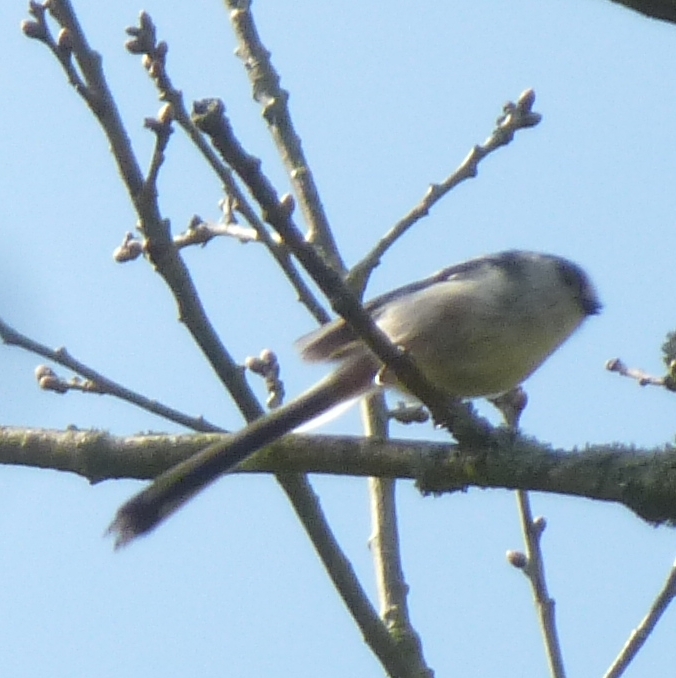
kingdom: Animalia
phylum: Chordata
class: Aves
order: Passeriformes
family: Aegithalidae
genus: Aegithalos
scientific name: Aegithalos caudatus
